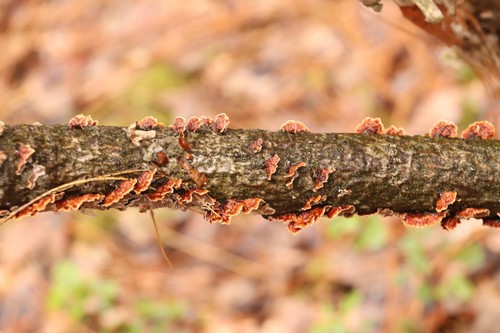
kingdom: Fungi
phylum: Basidiomycota
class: Agaricomycetes
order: Hymenochaetales
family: Hymenochaetaceae
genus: Hydnoporia
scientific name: Hydnoporia tabacina
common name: Willow glue
